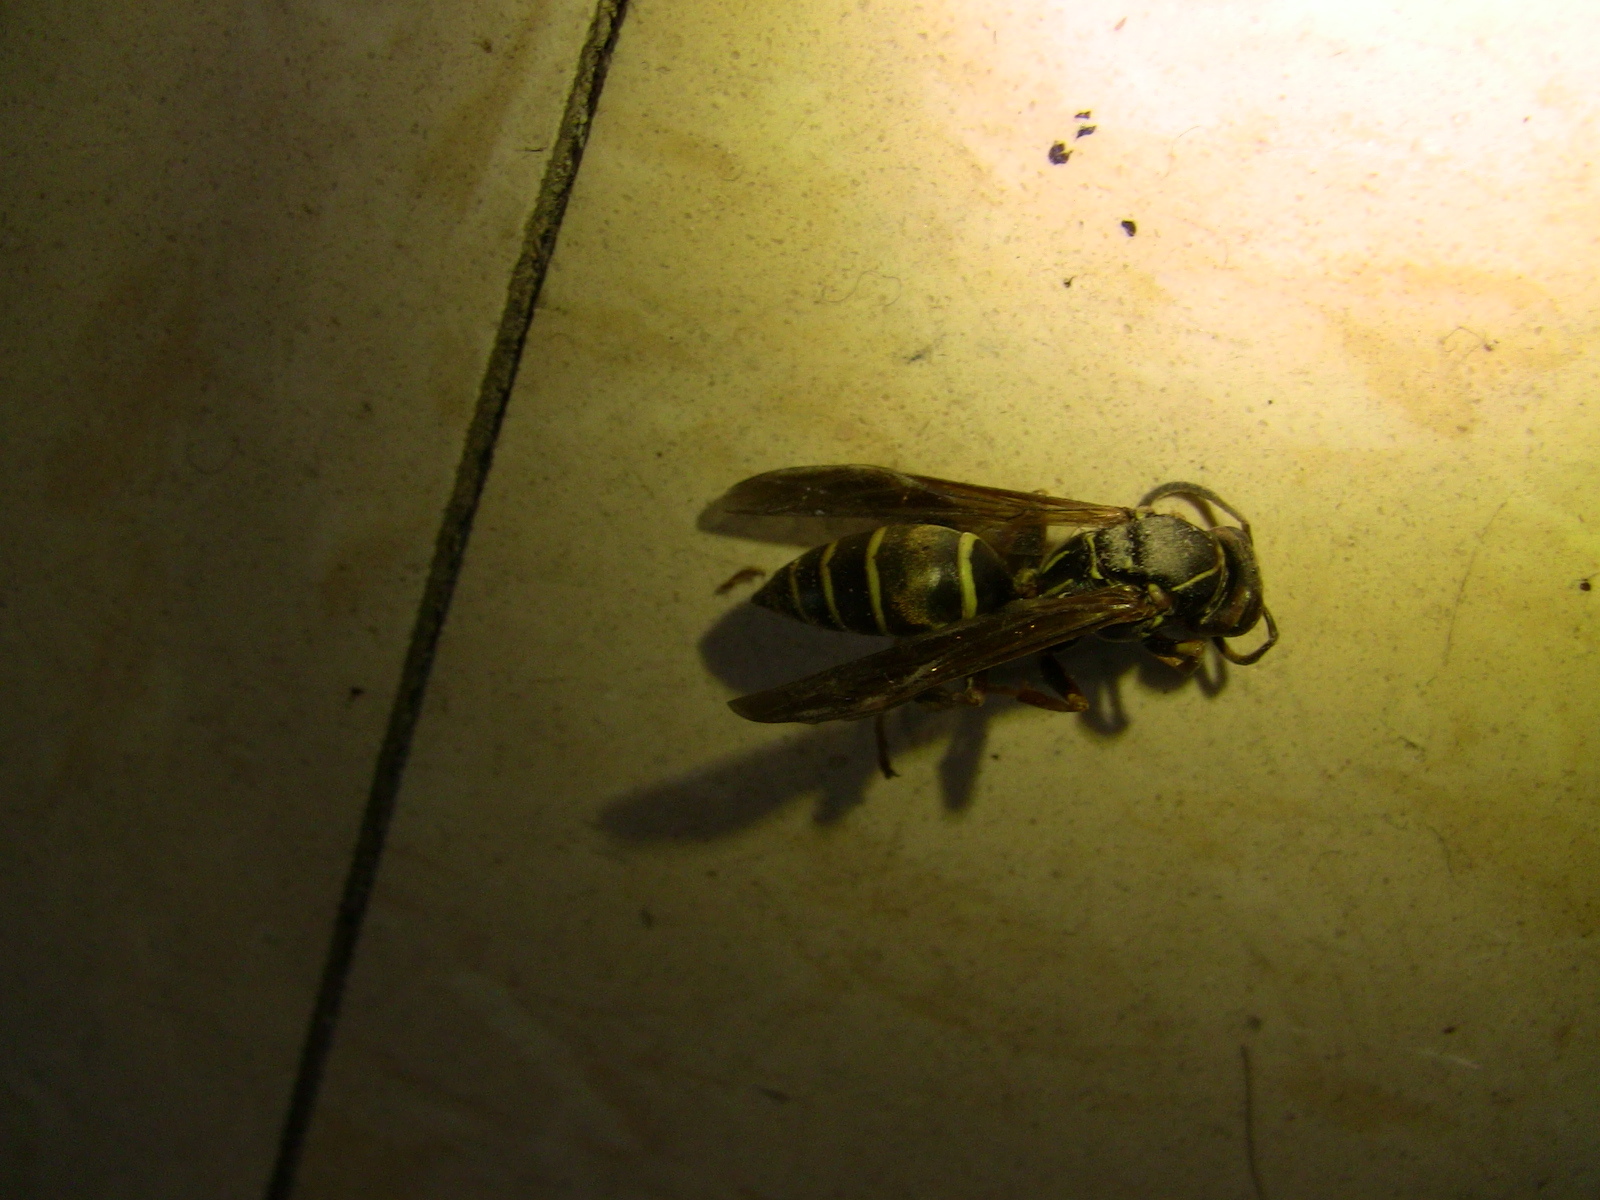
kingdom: Animalia
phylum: Arthropoda
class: Insecta
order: Hymenoptera
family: Eumenidae
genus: Polistes
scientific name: Polistes fuscatus
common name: Dark paper wasp
